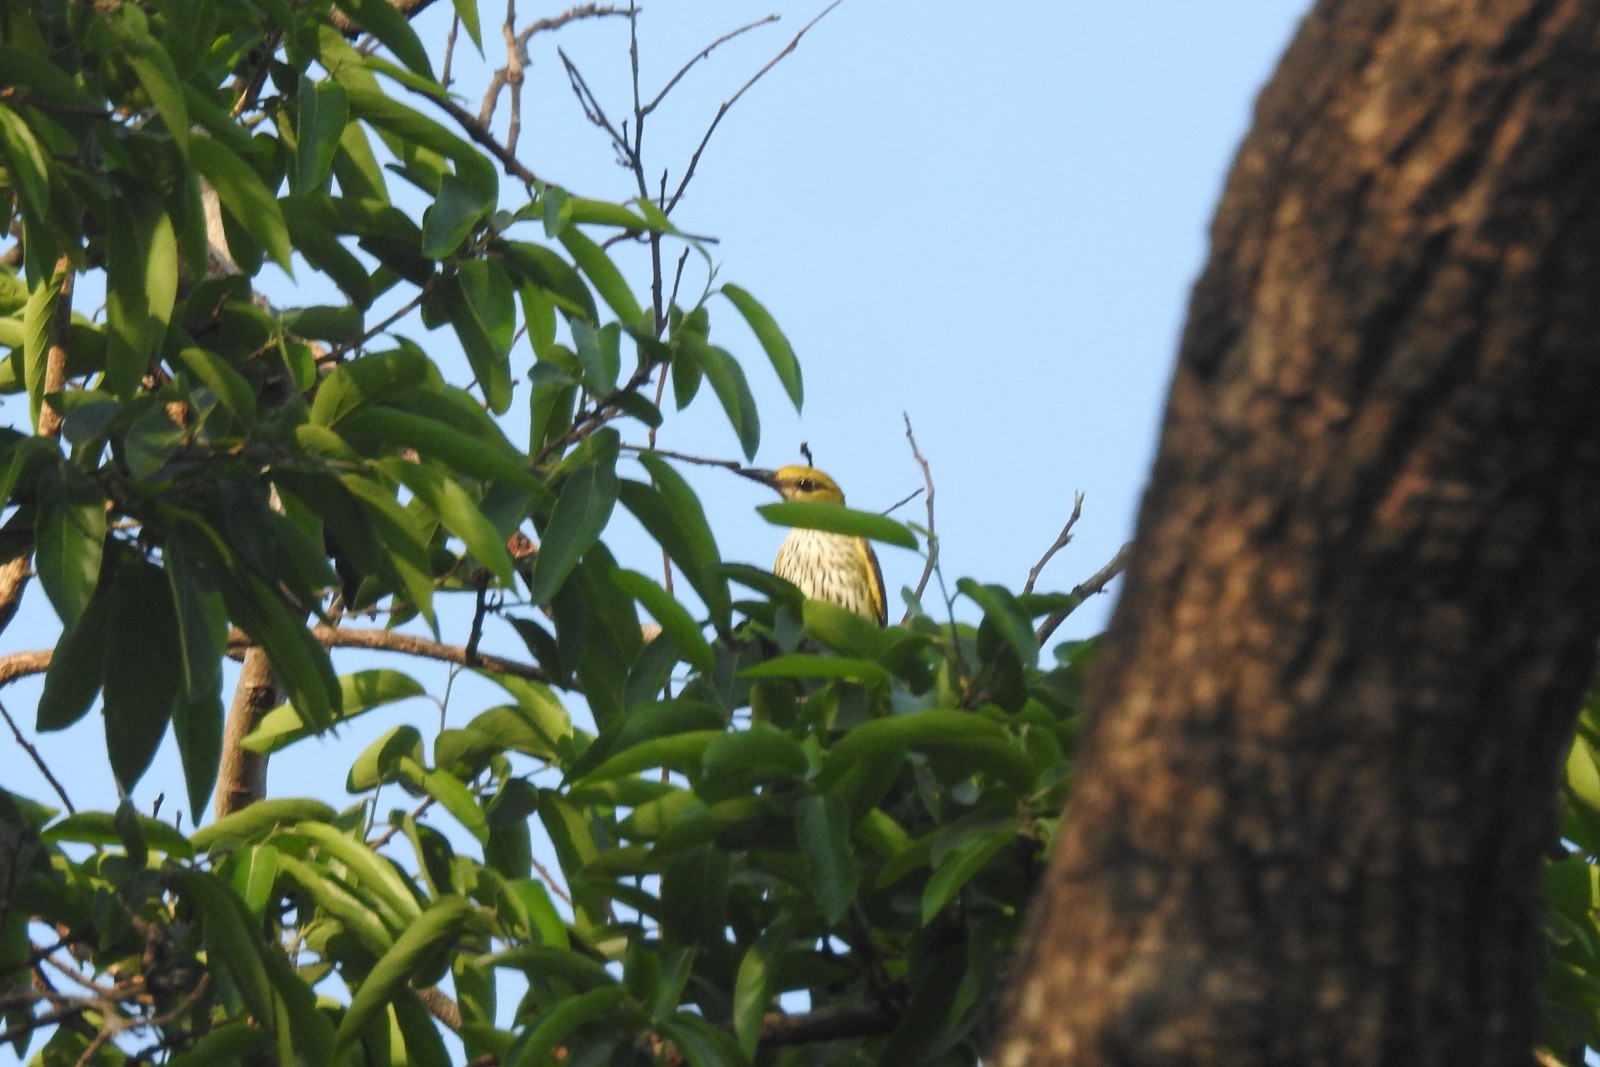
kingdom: Animalia
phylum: Chordata
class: Aves
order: Passeriformes
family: Oriolidae
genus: Oriolus
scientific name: Oriolus kundoo
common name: Indian golden oriole
